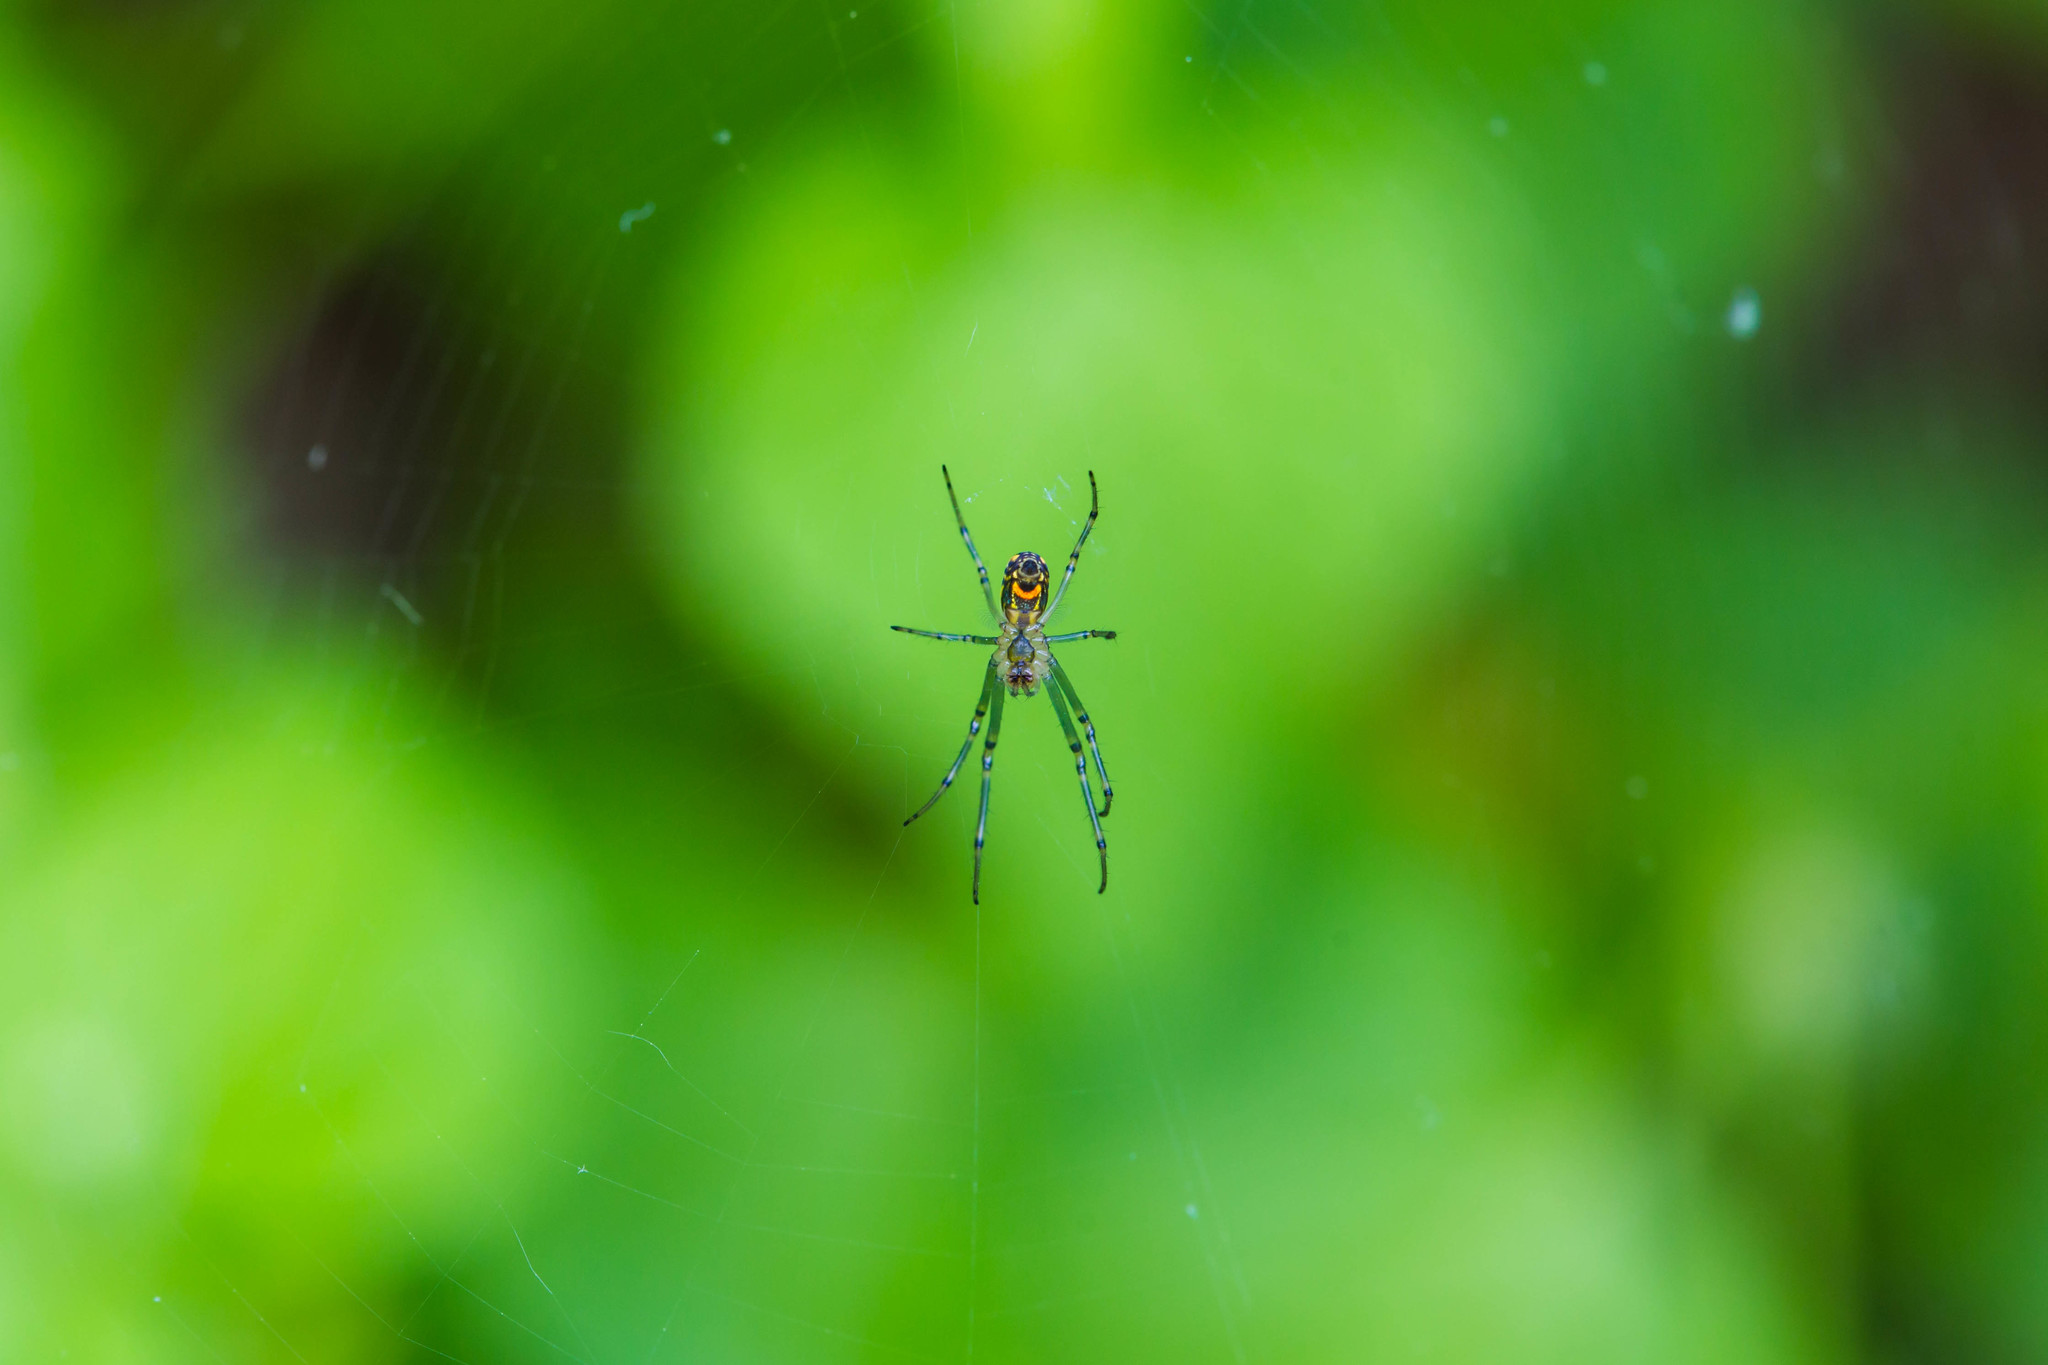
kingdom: Animalia
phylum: Arthropoda
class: Arachnida
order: Araneae
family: Tetragnathidae
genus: Leucauge
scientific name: Leucauge venusta
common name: Longjawed orb weavers
